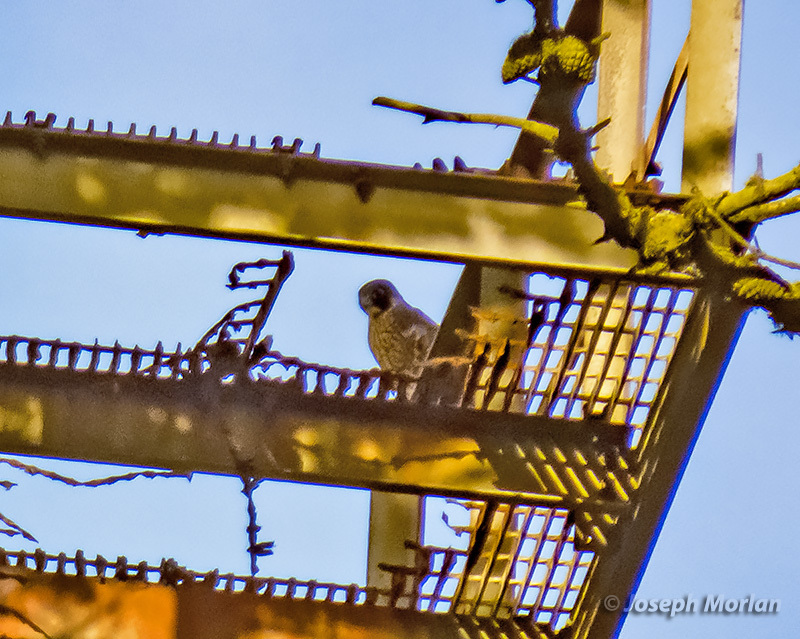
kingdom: Animalia
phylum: Chordata
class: Aves
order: Falconiformes
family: Falconidae
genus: Falco
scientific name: Falco peregrinus
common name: Peregrine falcon
